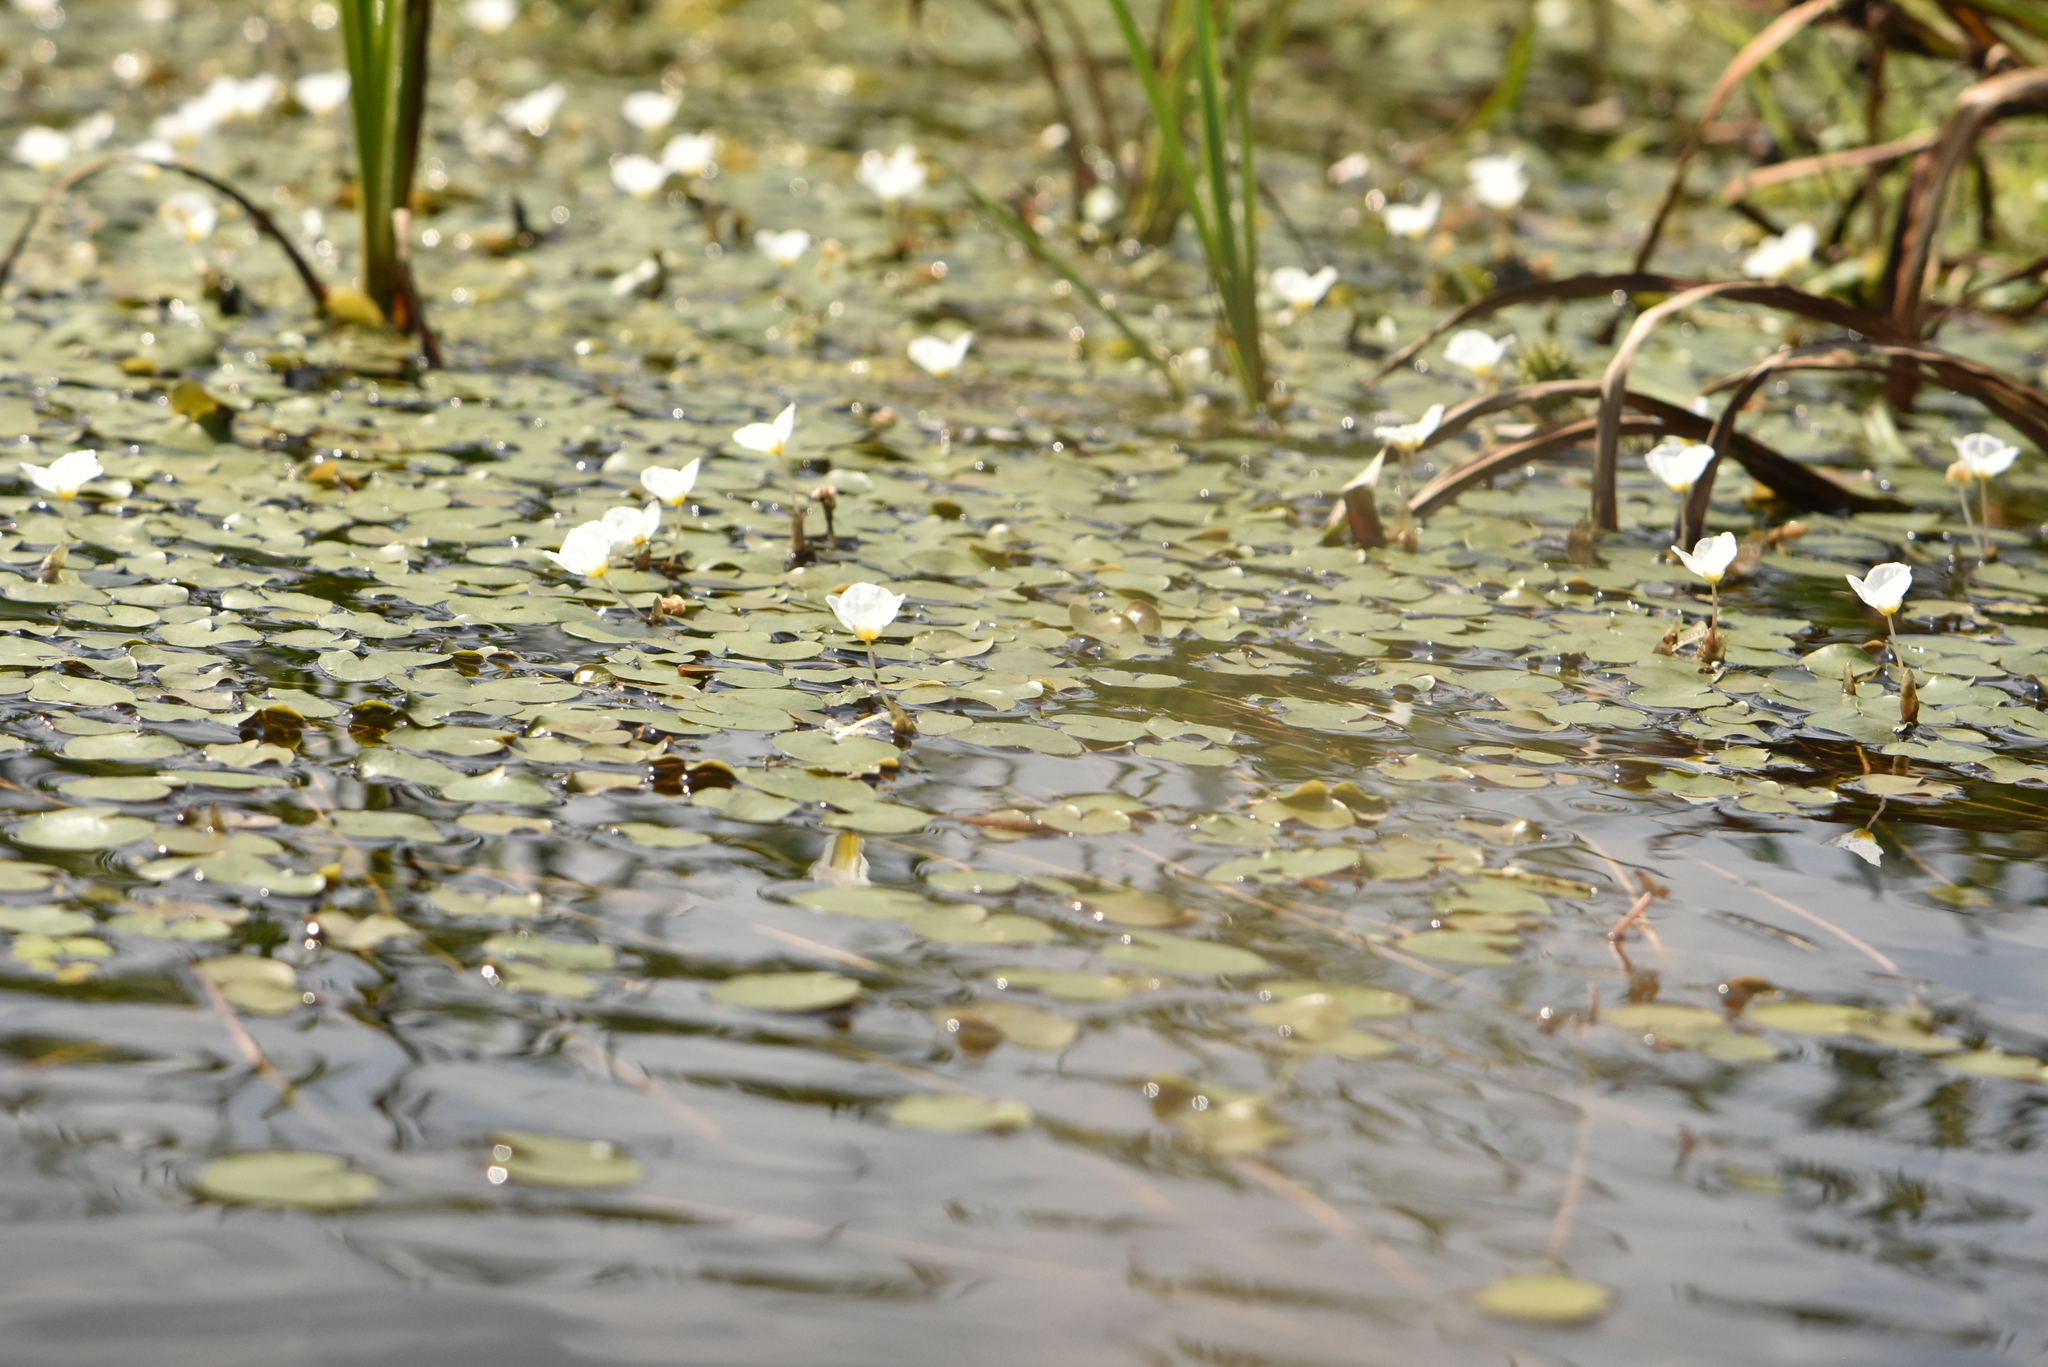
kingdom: Plantae
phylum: Tracheophyta
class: Liliopsida
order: Alismatales
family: Hydrocharitaceae
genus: Hydrocharis
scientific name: Hydrocharis morsus-ranae
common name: Frogbit
